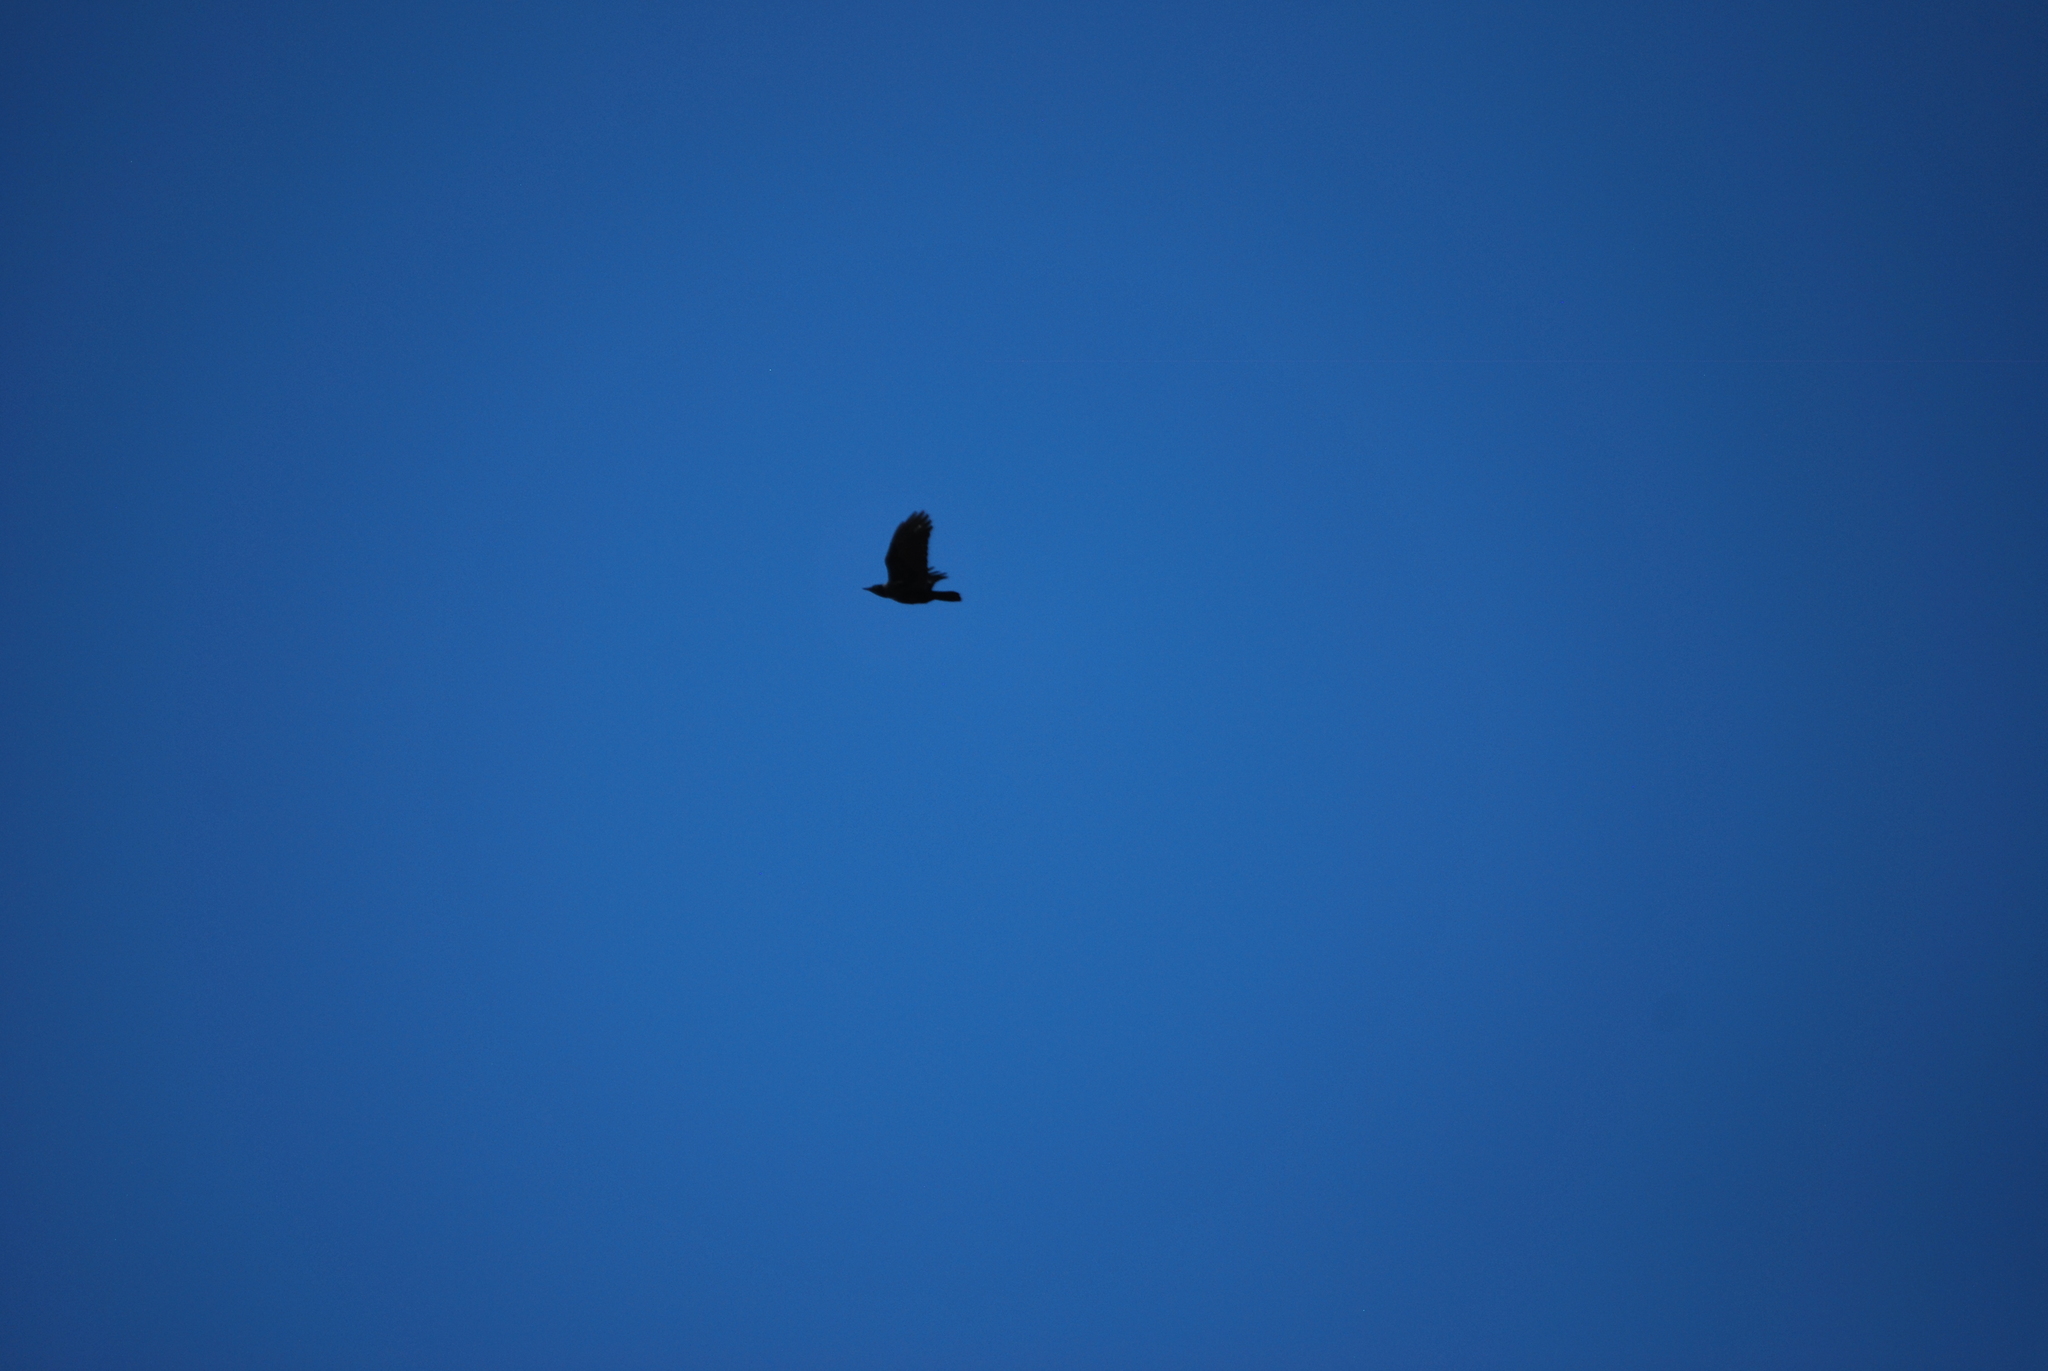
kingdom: Animalia
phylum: Chordata
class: Aves
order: Passeriformes
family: Corvidae
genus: Corvus
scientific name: Corvus brachyrhynchos
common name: American crow
